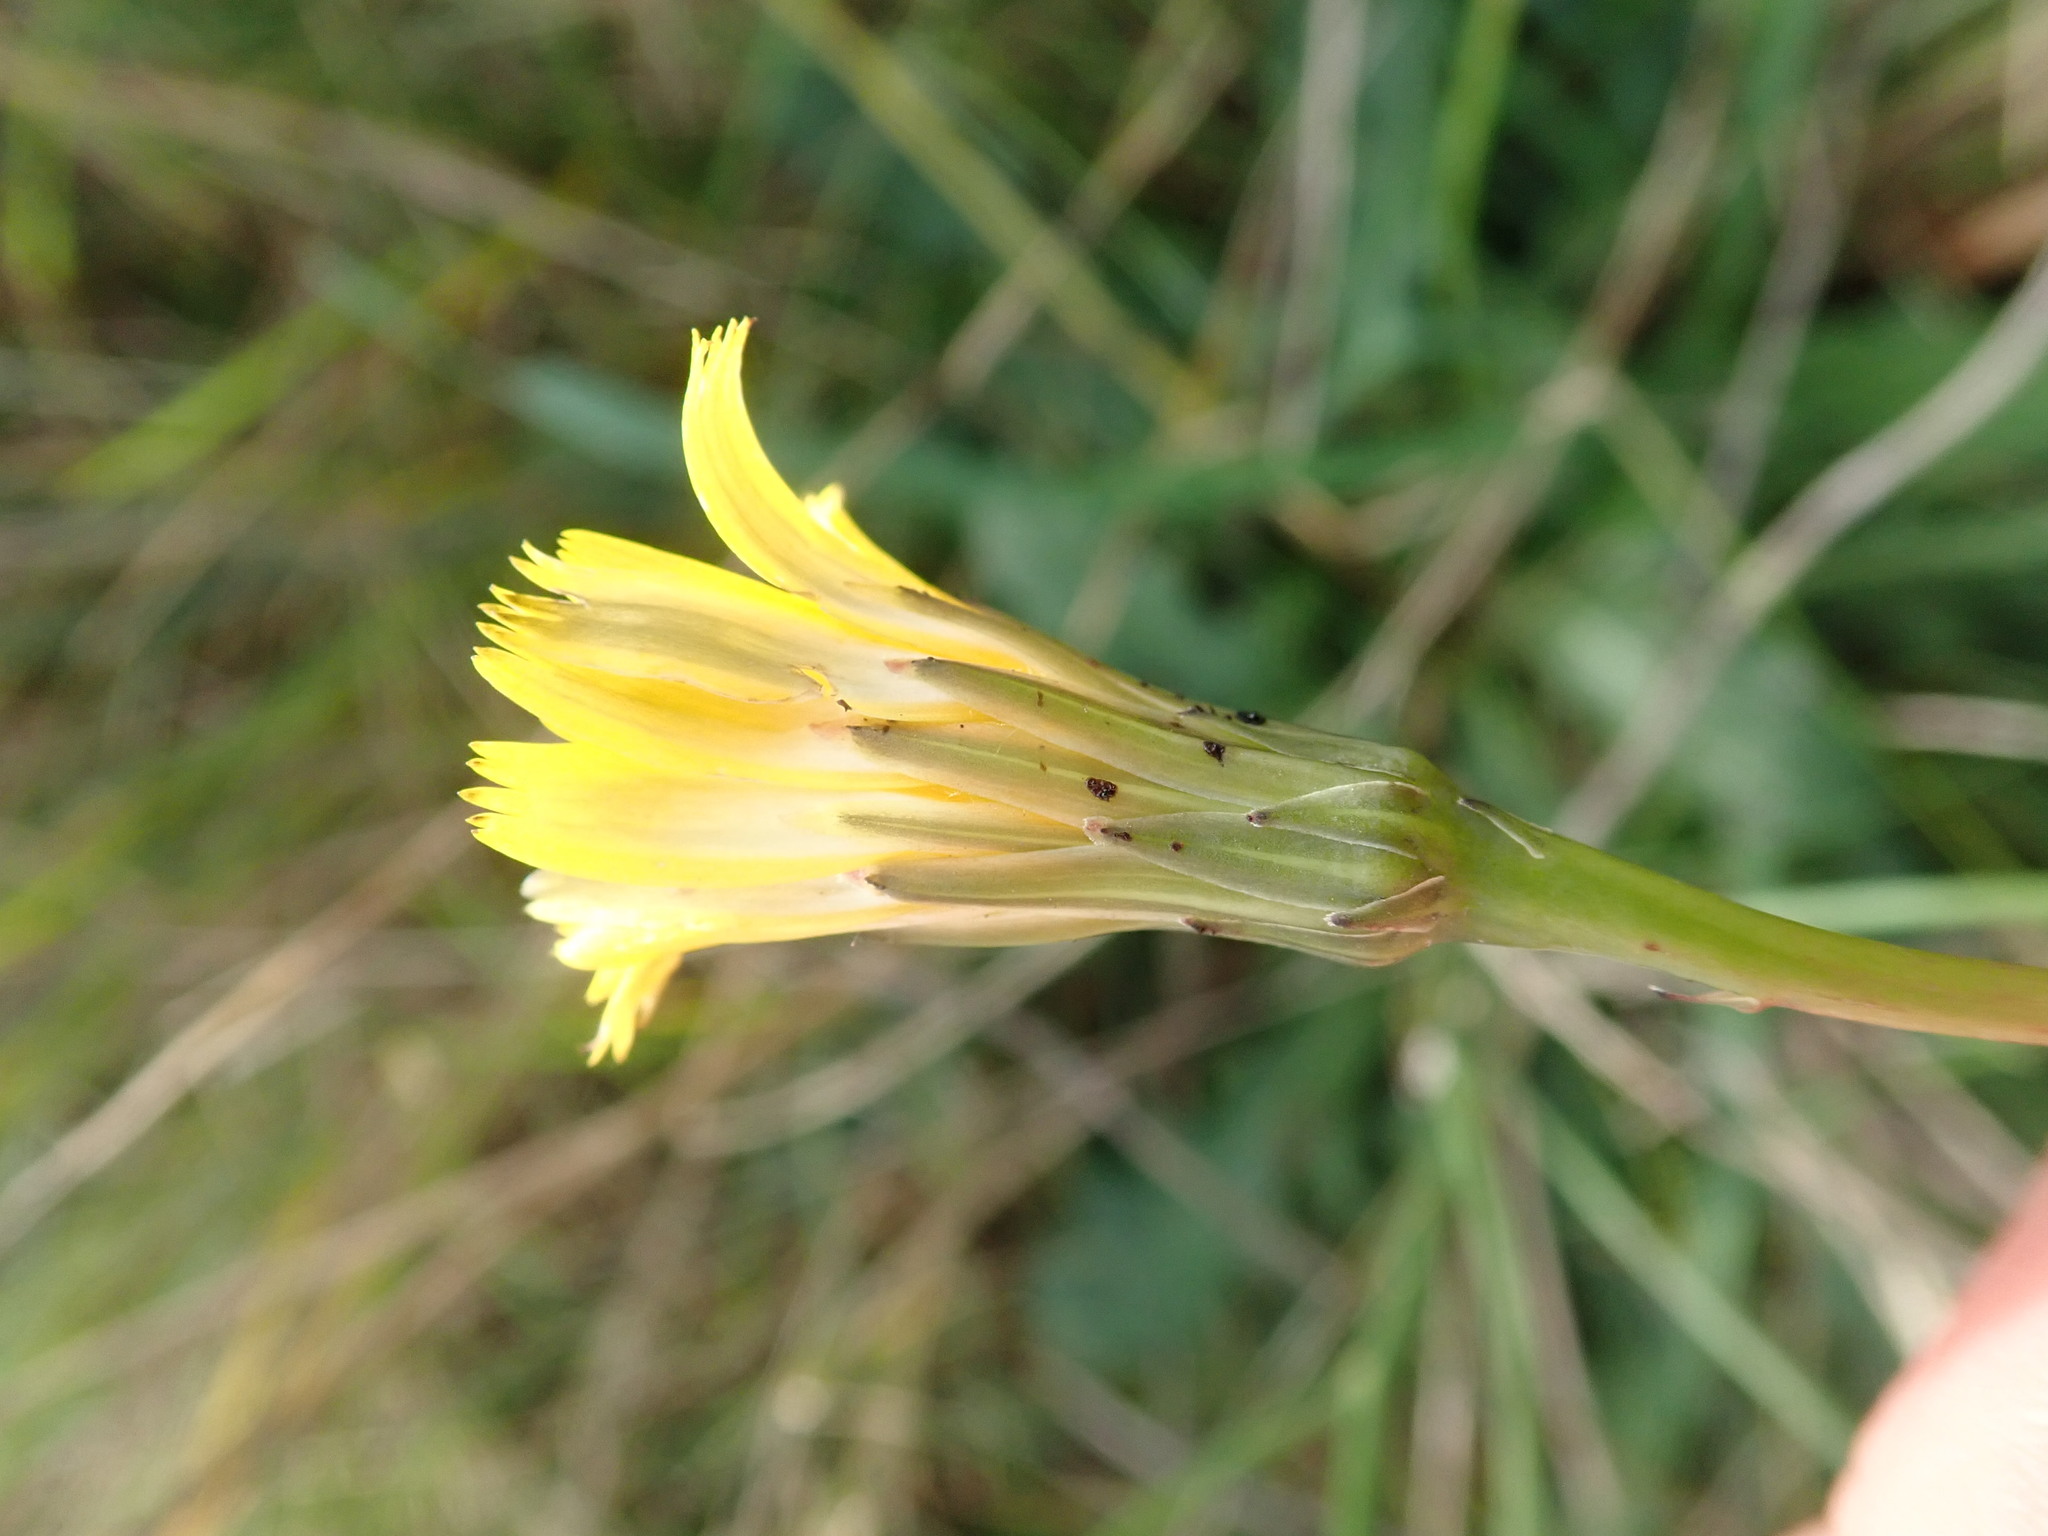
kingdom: Plantae
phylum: Tracheophyta
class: Magnoliopsida
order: Asterales
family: Asteraceae
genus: Hypochaeris
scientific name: Hypochaeris radicata
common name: Flatweed
